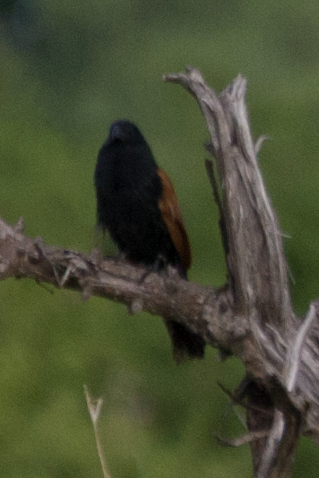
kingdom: Animalia
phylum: Chordata
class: Aves
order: Cuculiformes
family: Cuculidae
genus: Centropus
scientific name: Centropus grillii
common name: Black coucal
